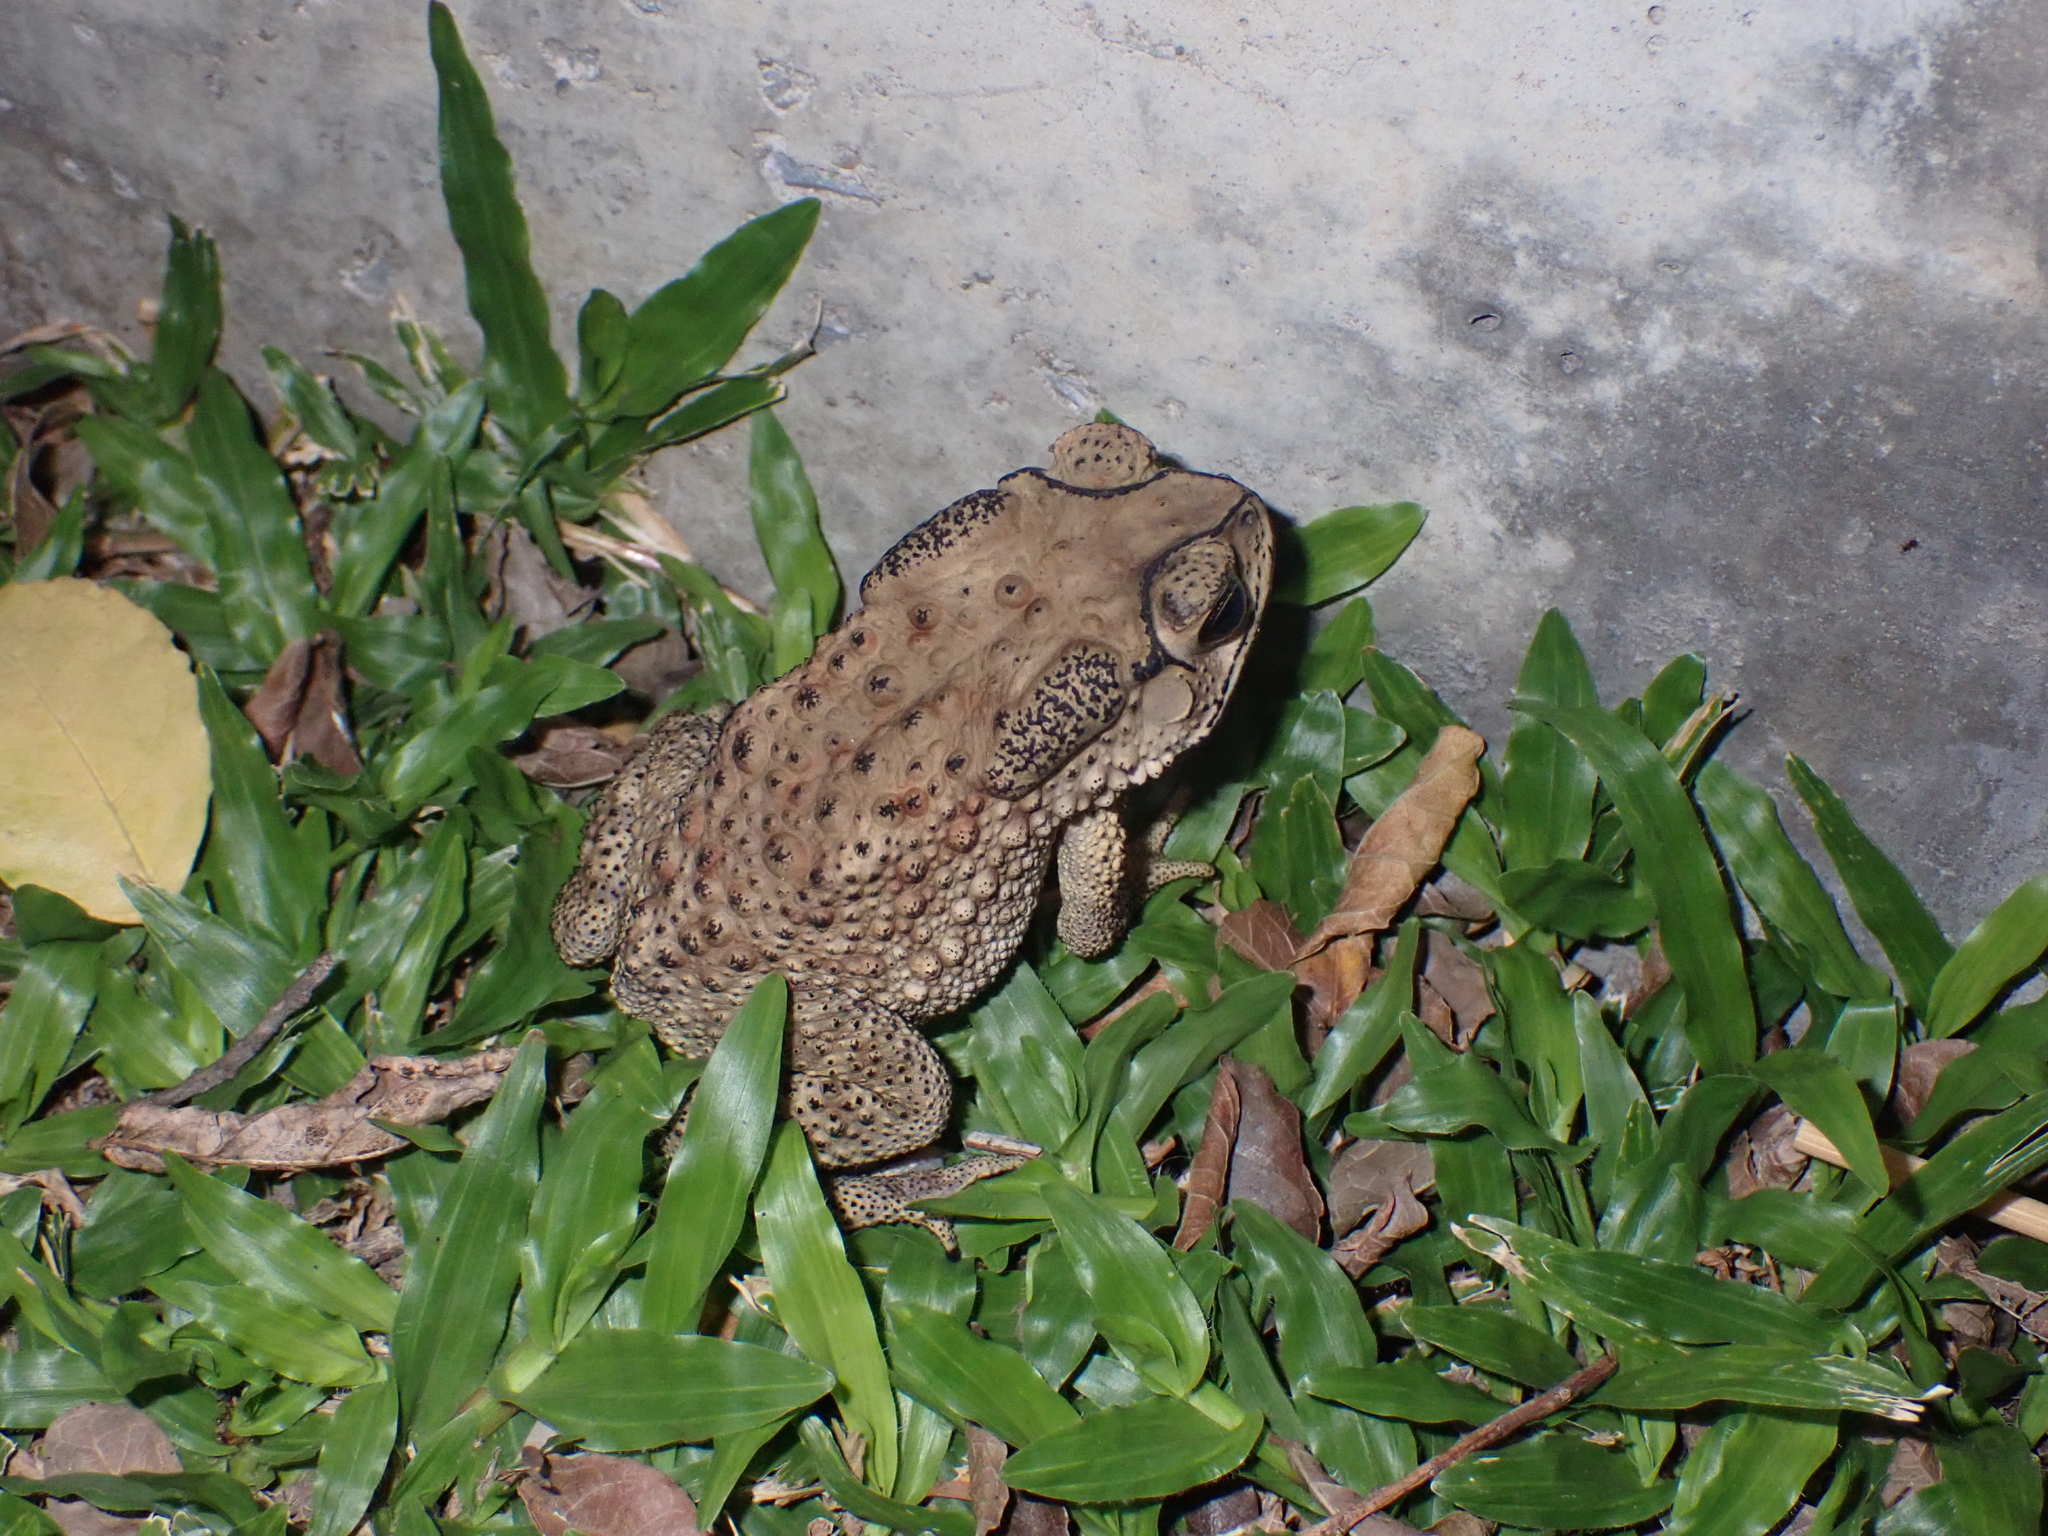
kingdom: Animalia
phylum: Chordata
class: Amphibia
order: Anura
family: Bufonidae
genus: Duttaphrynus
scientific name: Duttaphrynus melanostictus
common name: Common sunda toad
